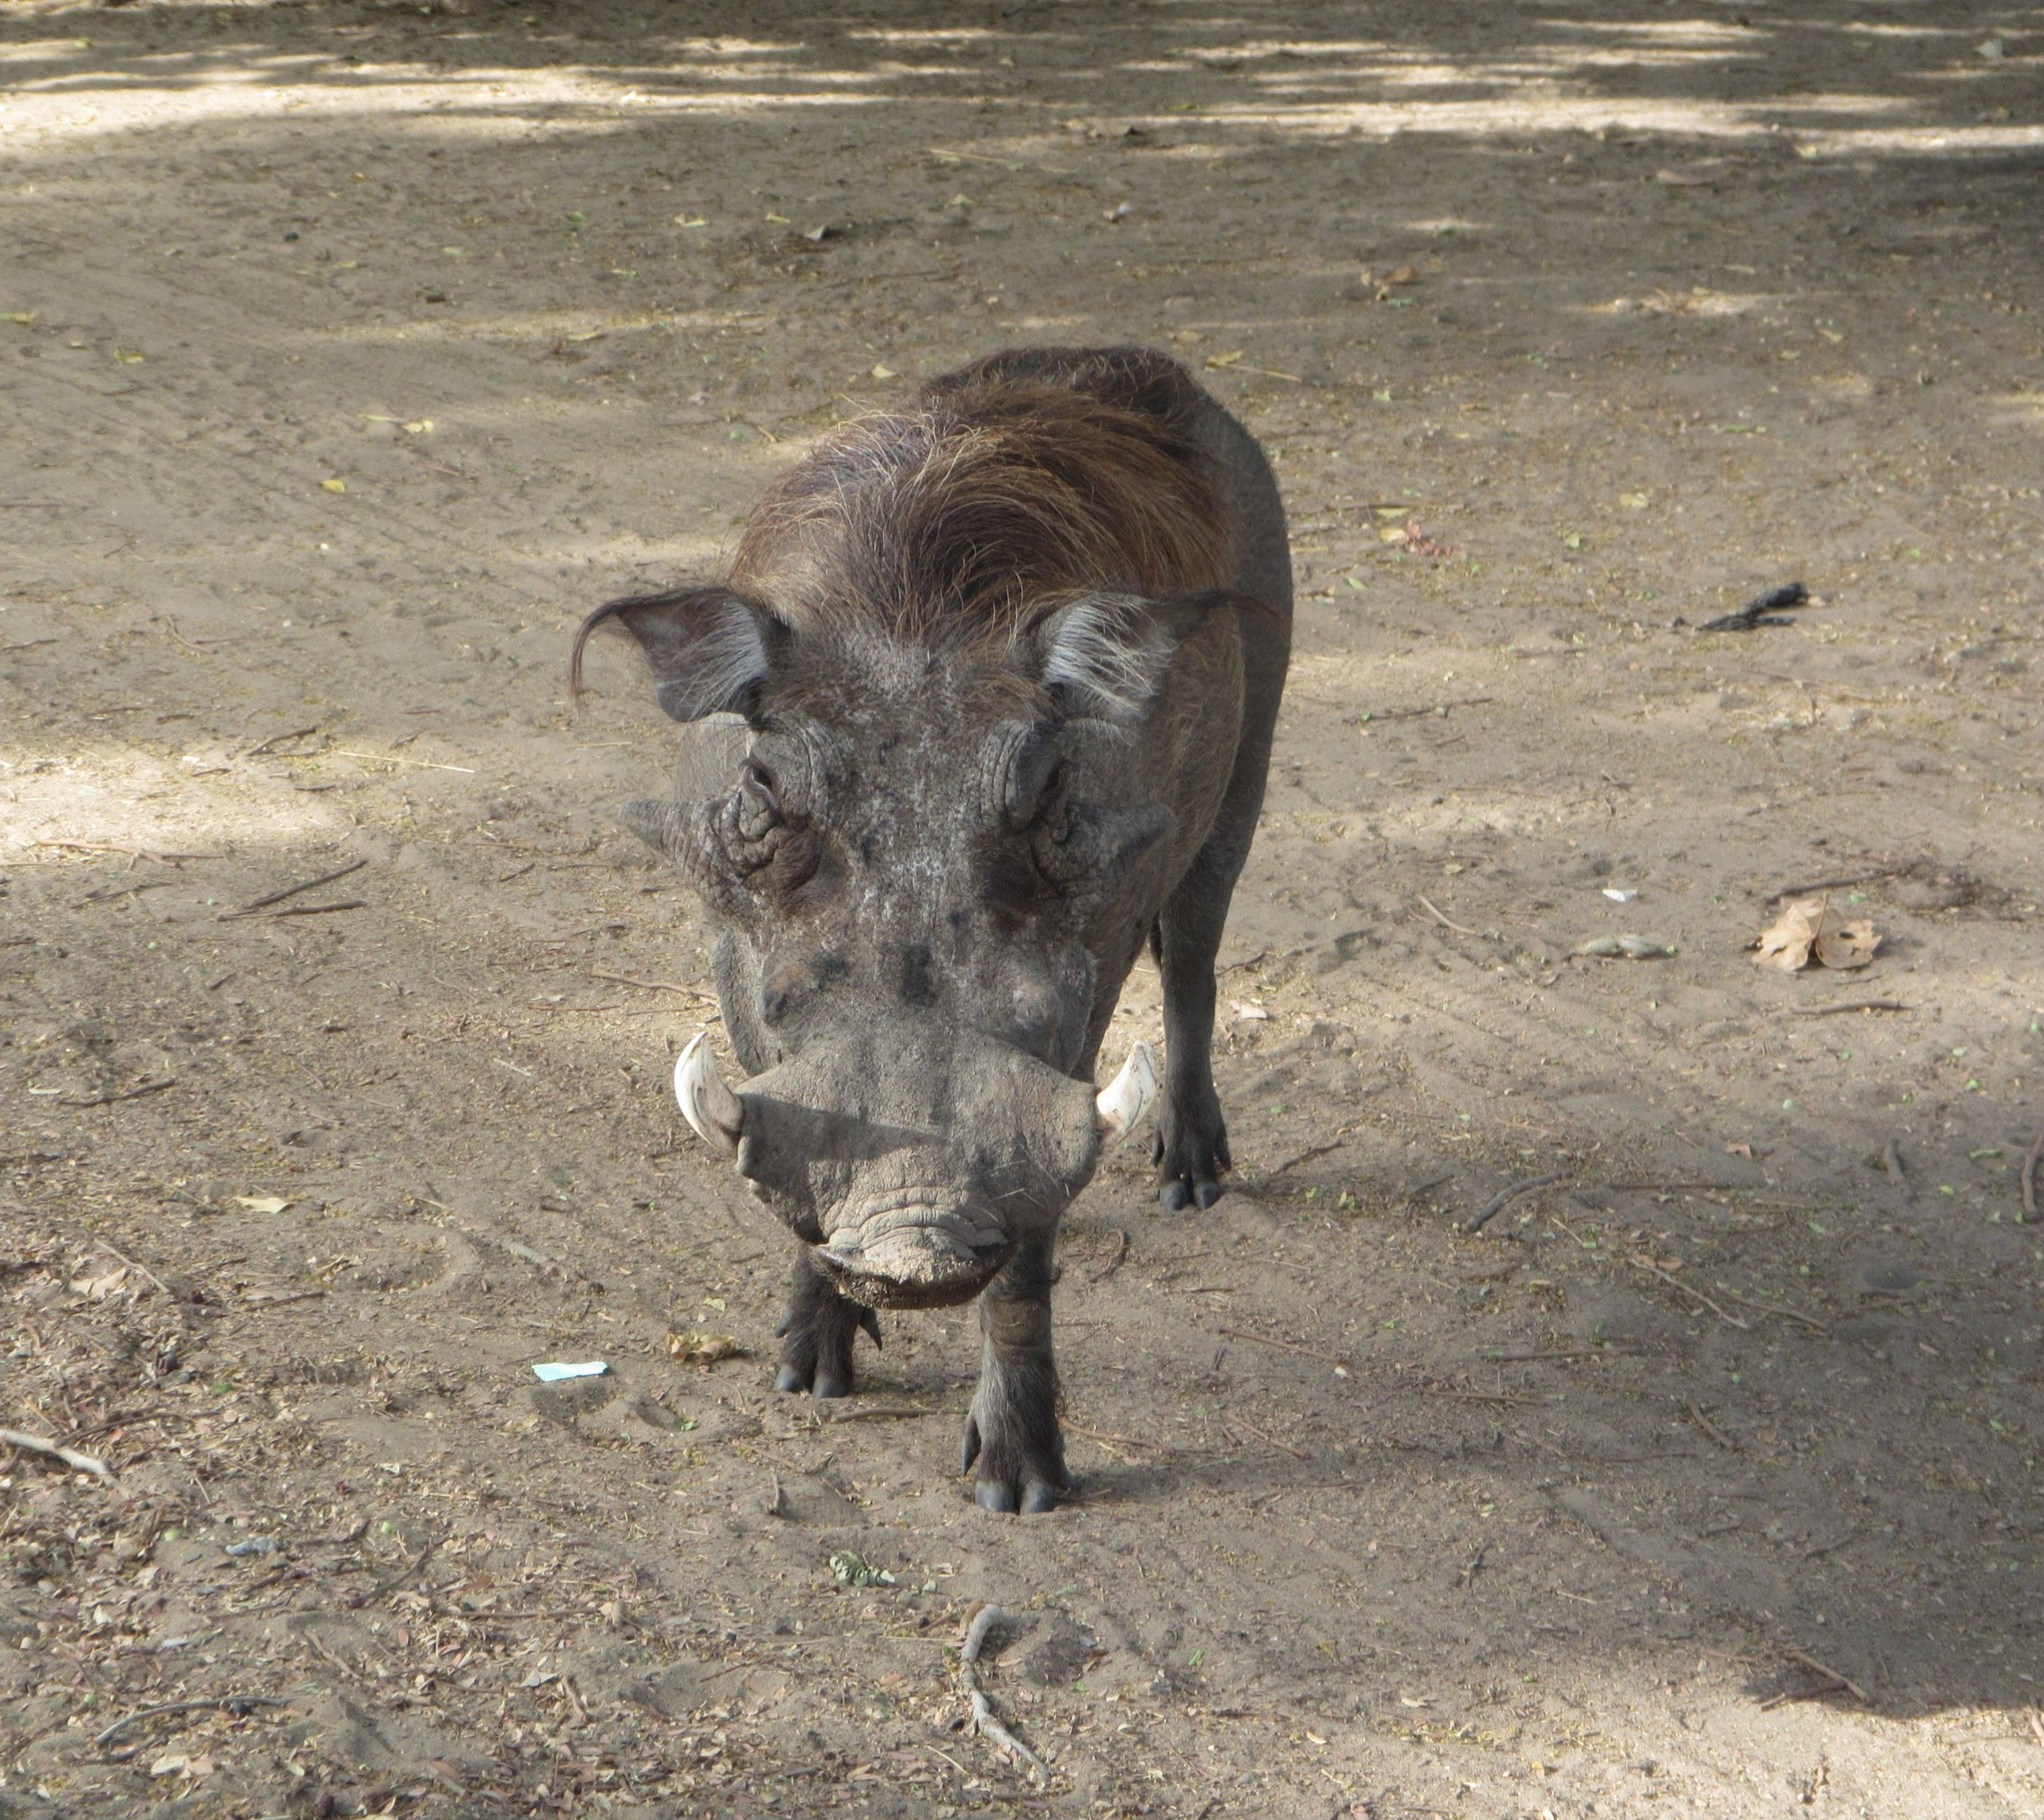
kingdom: Animalia
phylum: Chordata
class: Mammalia
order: Artiodactyla
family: Suidae
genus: Phacochoerus
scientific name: Phacochoerus africanus
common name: Common warthog
